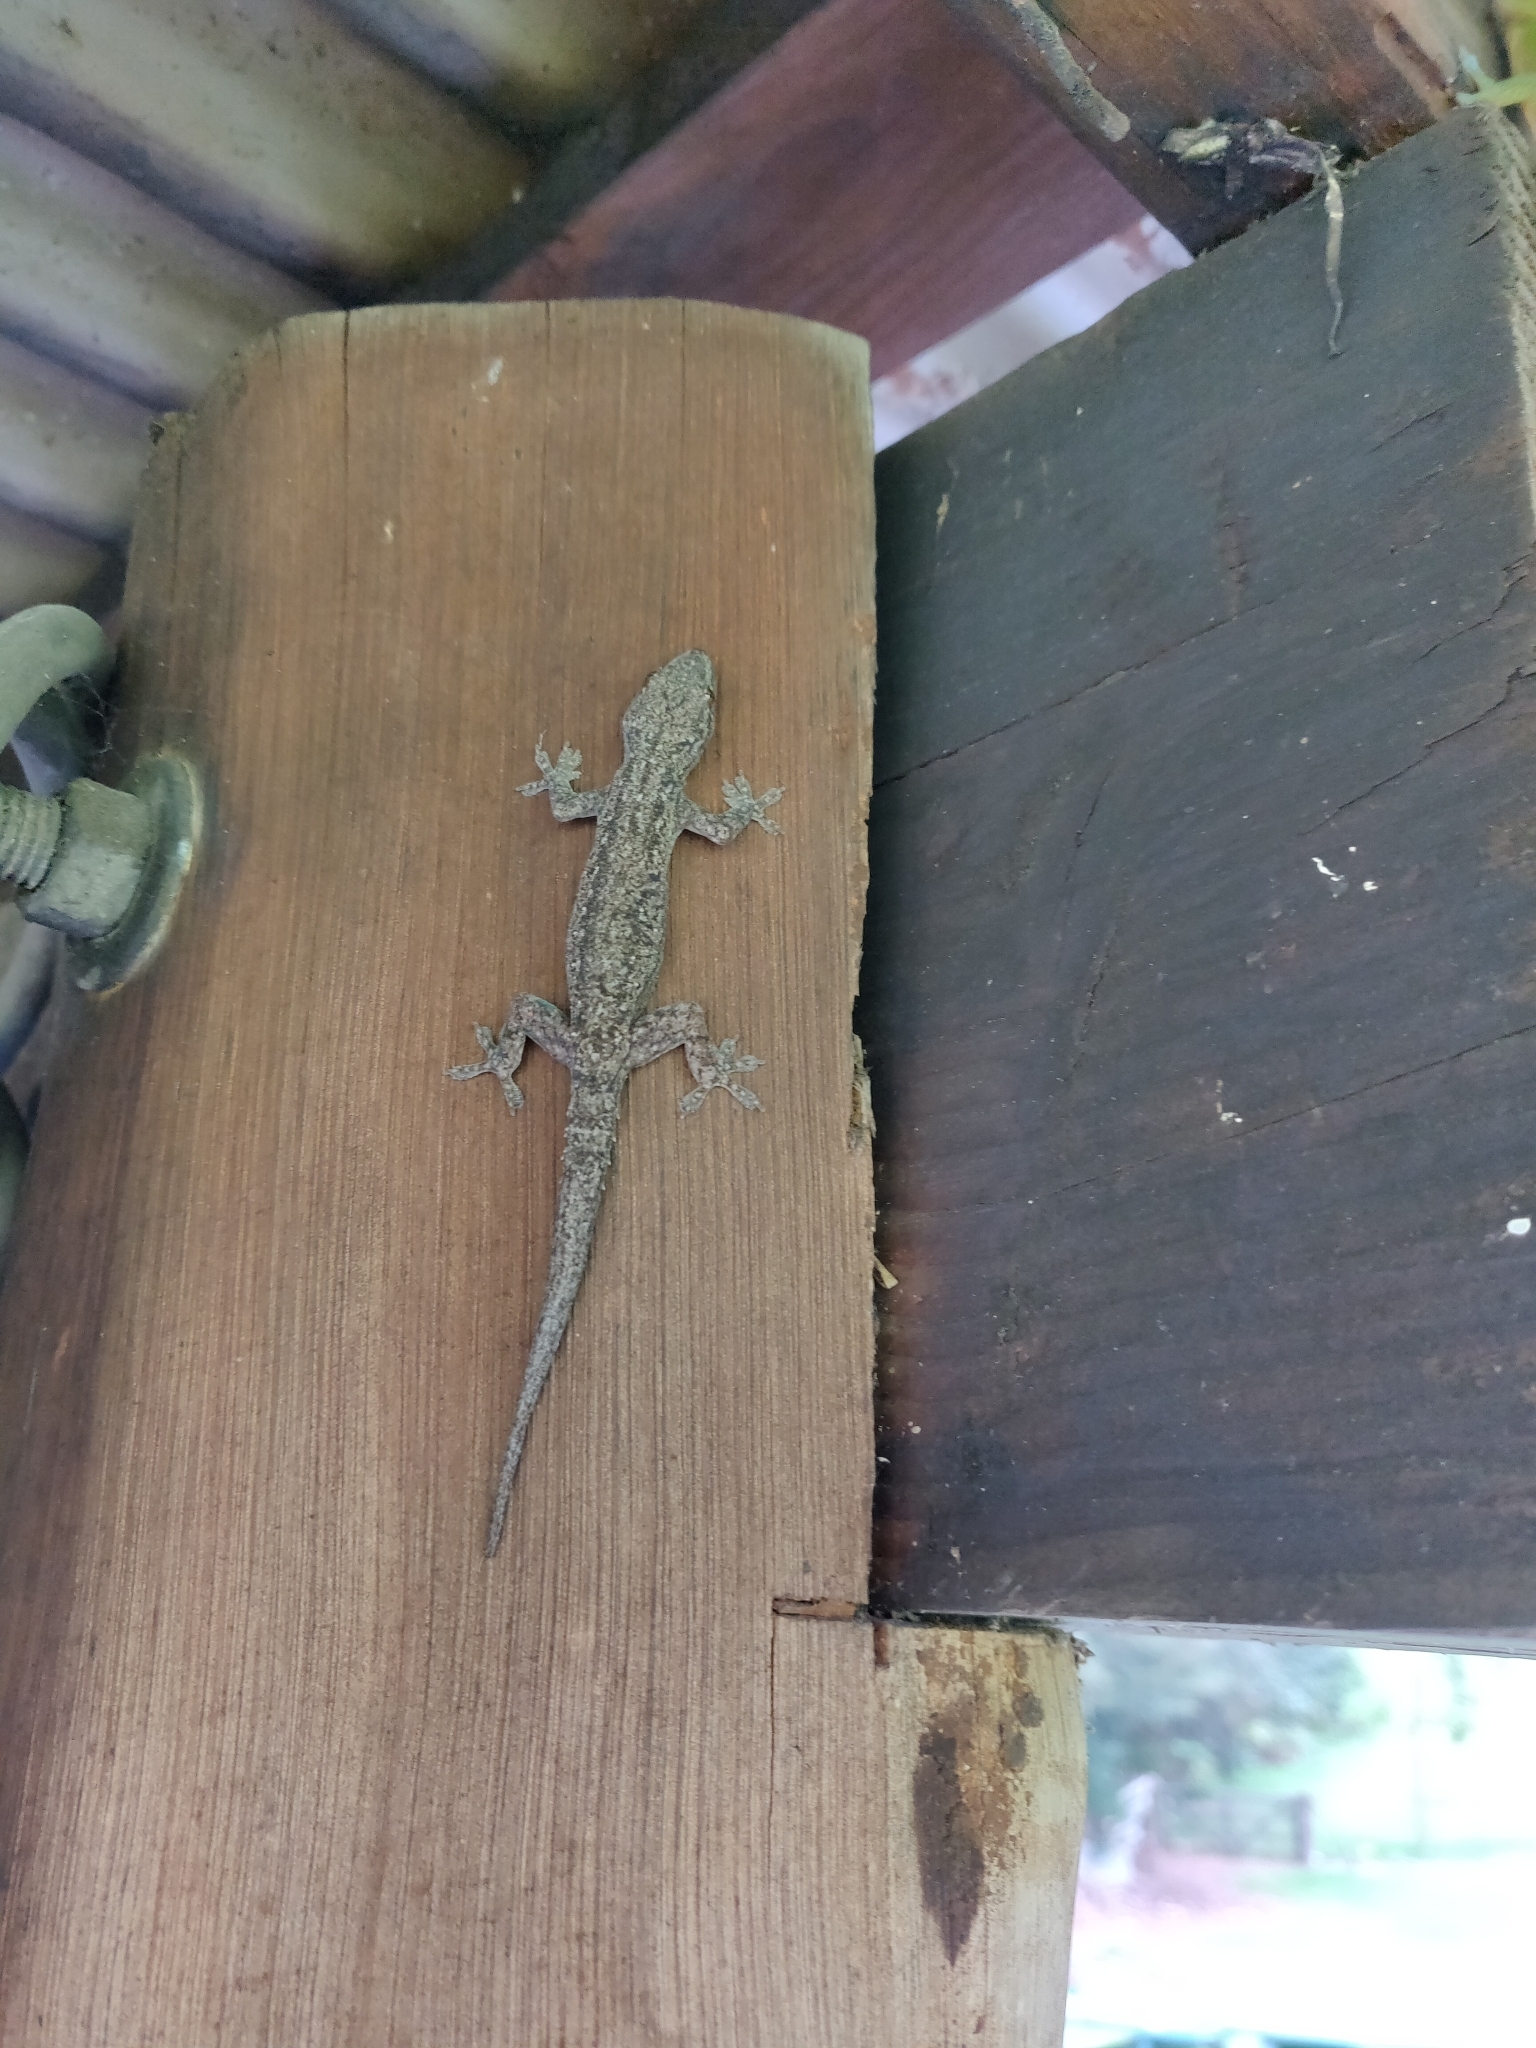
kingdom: Animalia
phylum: Chordata
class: Squamata
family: Gekkonidae
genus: Hemidactylus
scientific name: Hemidactylus frenatus
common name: Common house gecko
